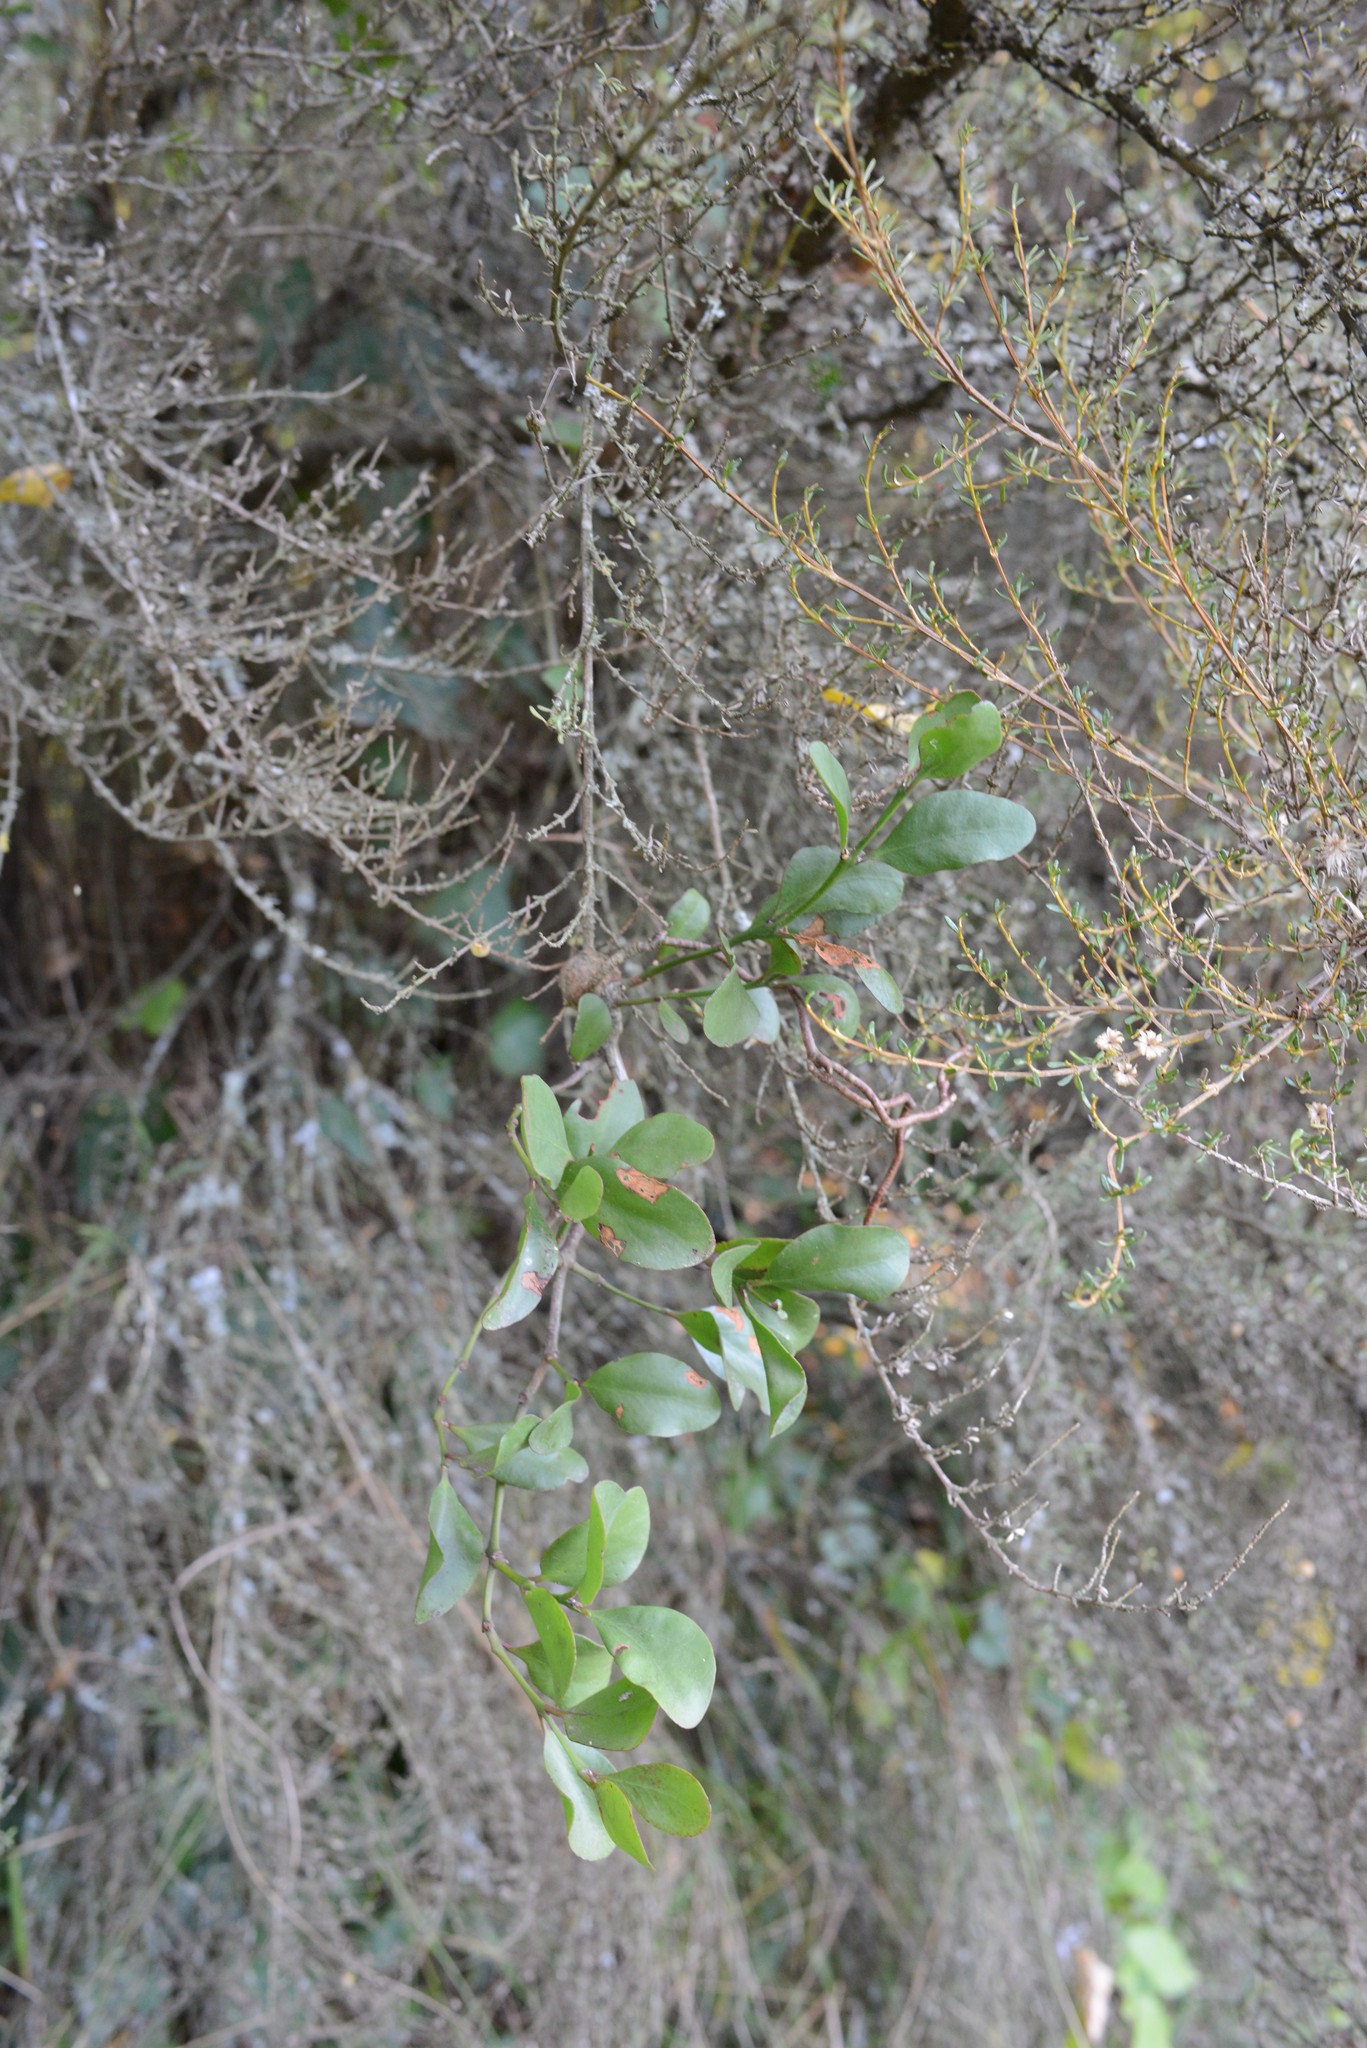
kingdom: Plantae
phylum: Tracheophyta
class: Magnoliopsida
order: Santalales
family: Loranthaceae
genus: Ileostylus
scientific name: Ileostylus micranthus
